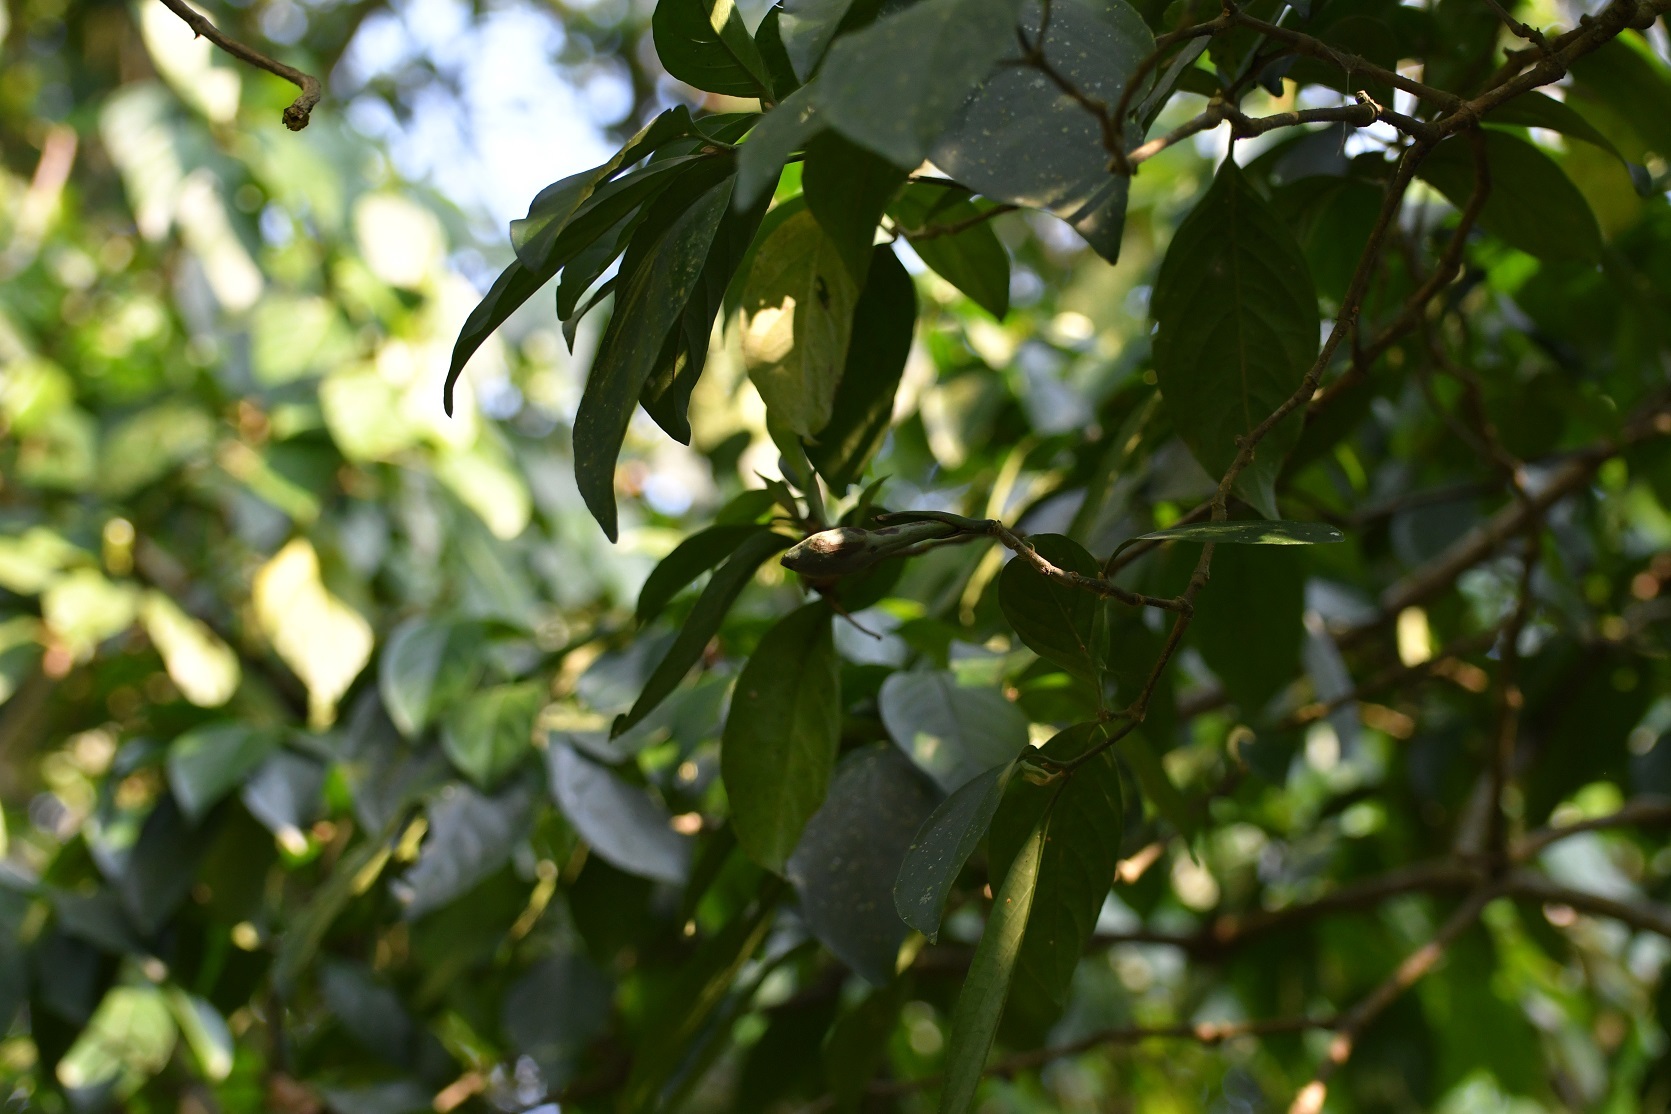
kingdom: Plantae
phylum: Tracheophyta
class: Magnoliopsida
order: Lamiales
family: Acanthaceae
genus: Spathacanthus
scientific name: Spathacanthus hahnianus
